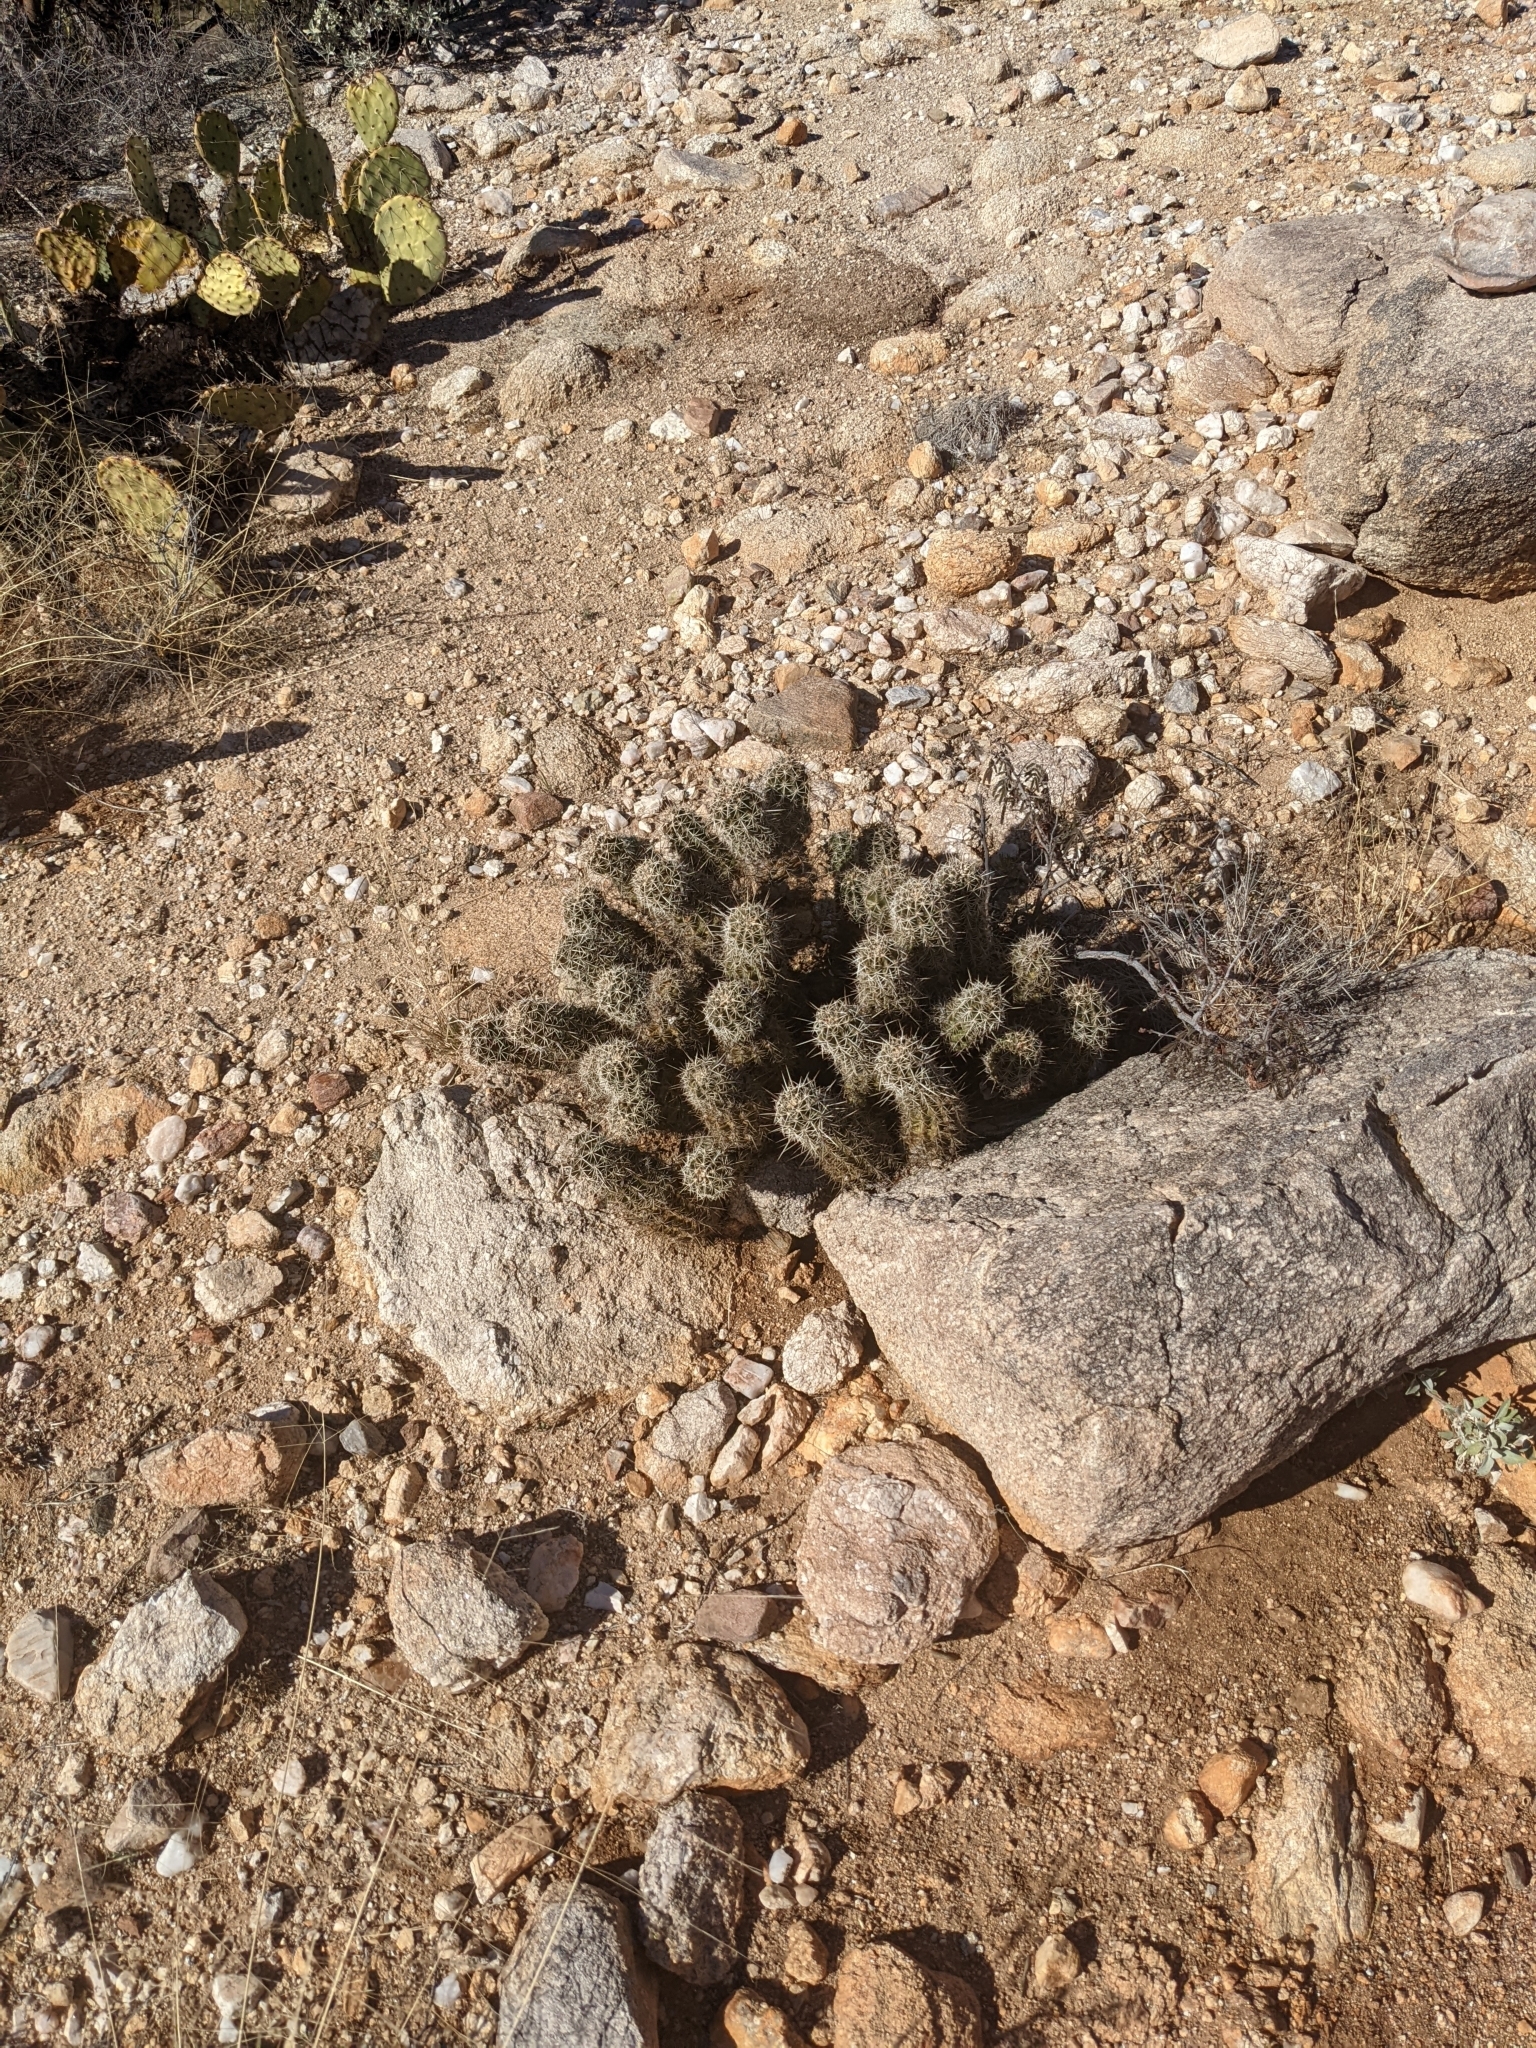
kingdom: Plantae
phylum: Tracheophyta
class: Magnoliopsida
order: Caryophyllales
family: Cactaceae
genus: Echinocereus
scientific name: Echinocereus fasciculatus
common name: Bundle hedgehog
